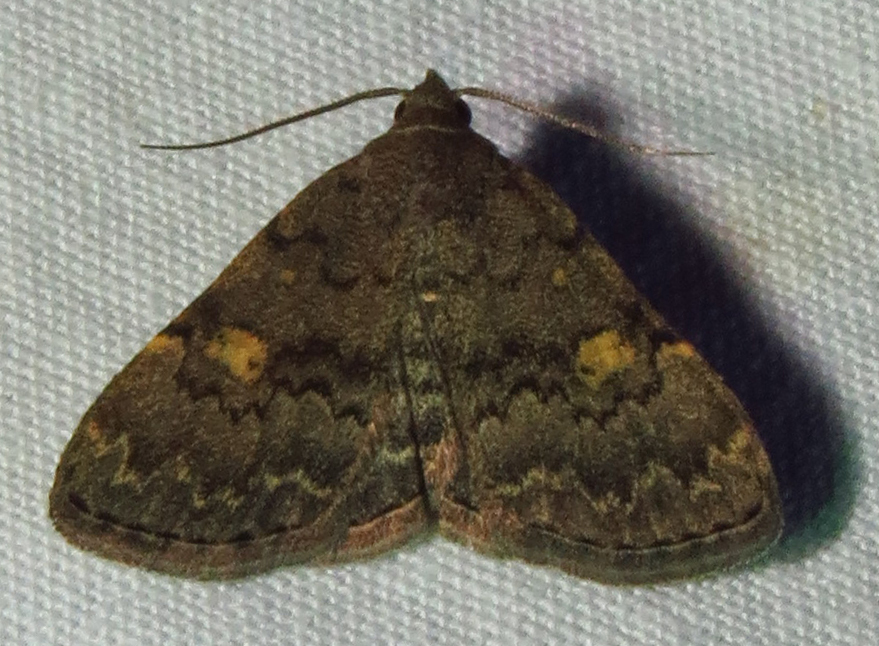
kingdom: Animalia
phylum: Arthropoda
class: Insecta
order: Lepidoptera
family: Erebidae
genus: Idia
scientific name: Idia aemula
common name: Common idia moth
